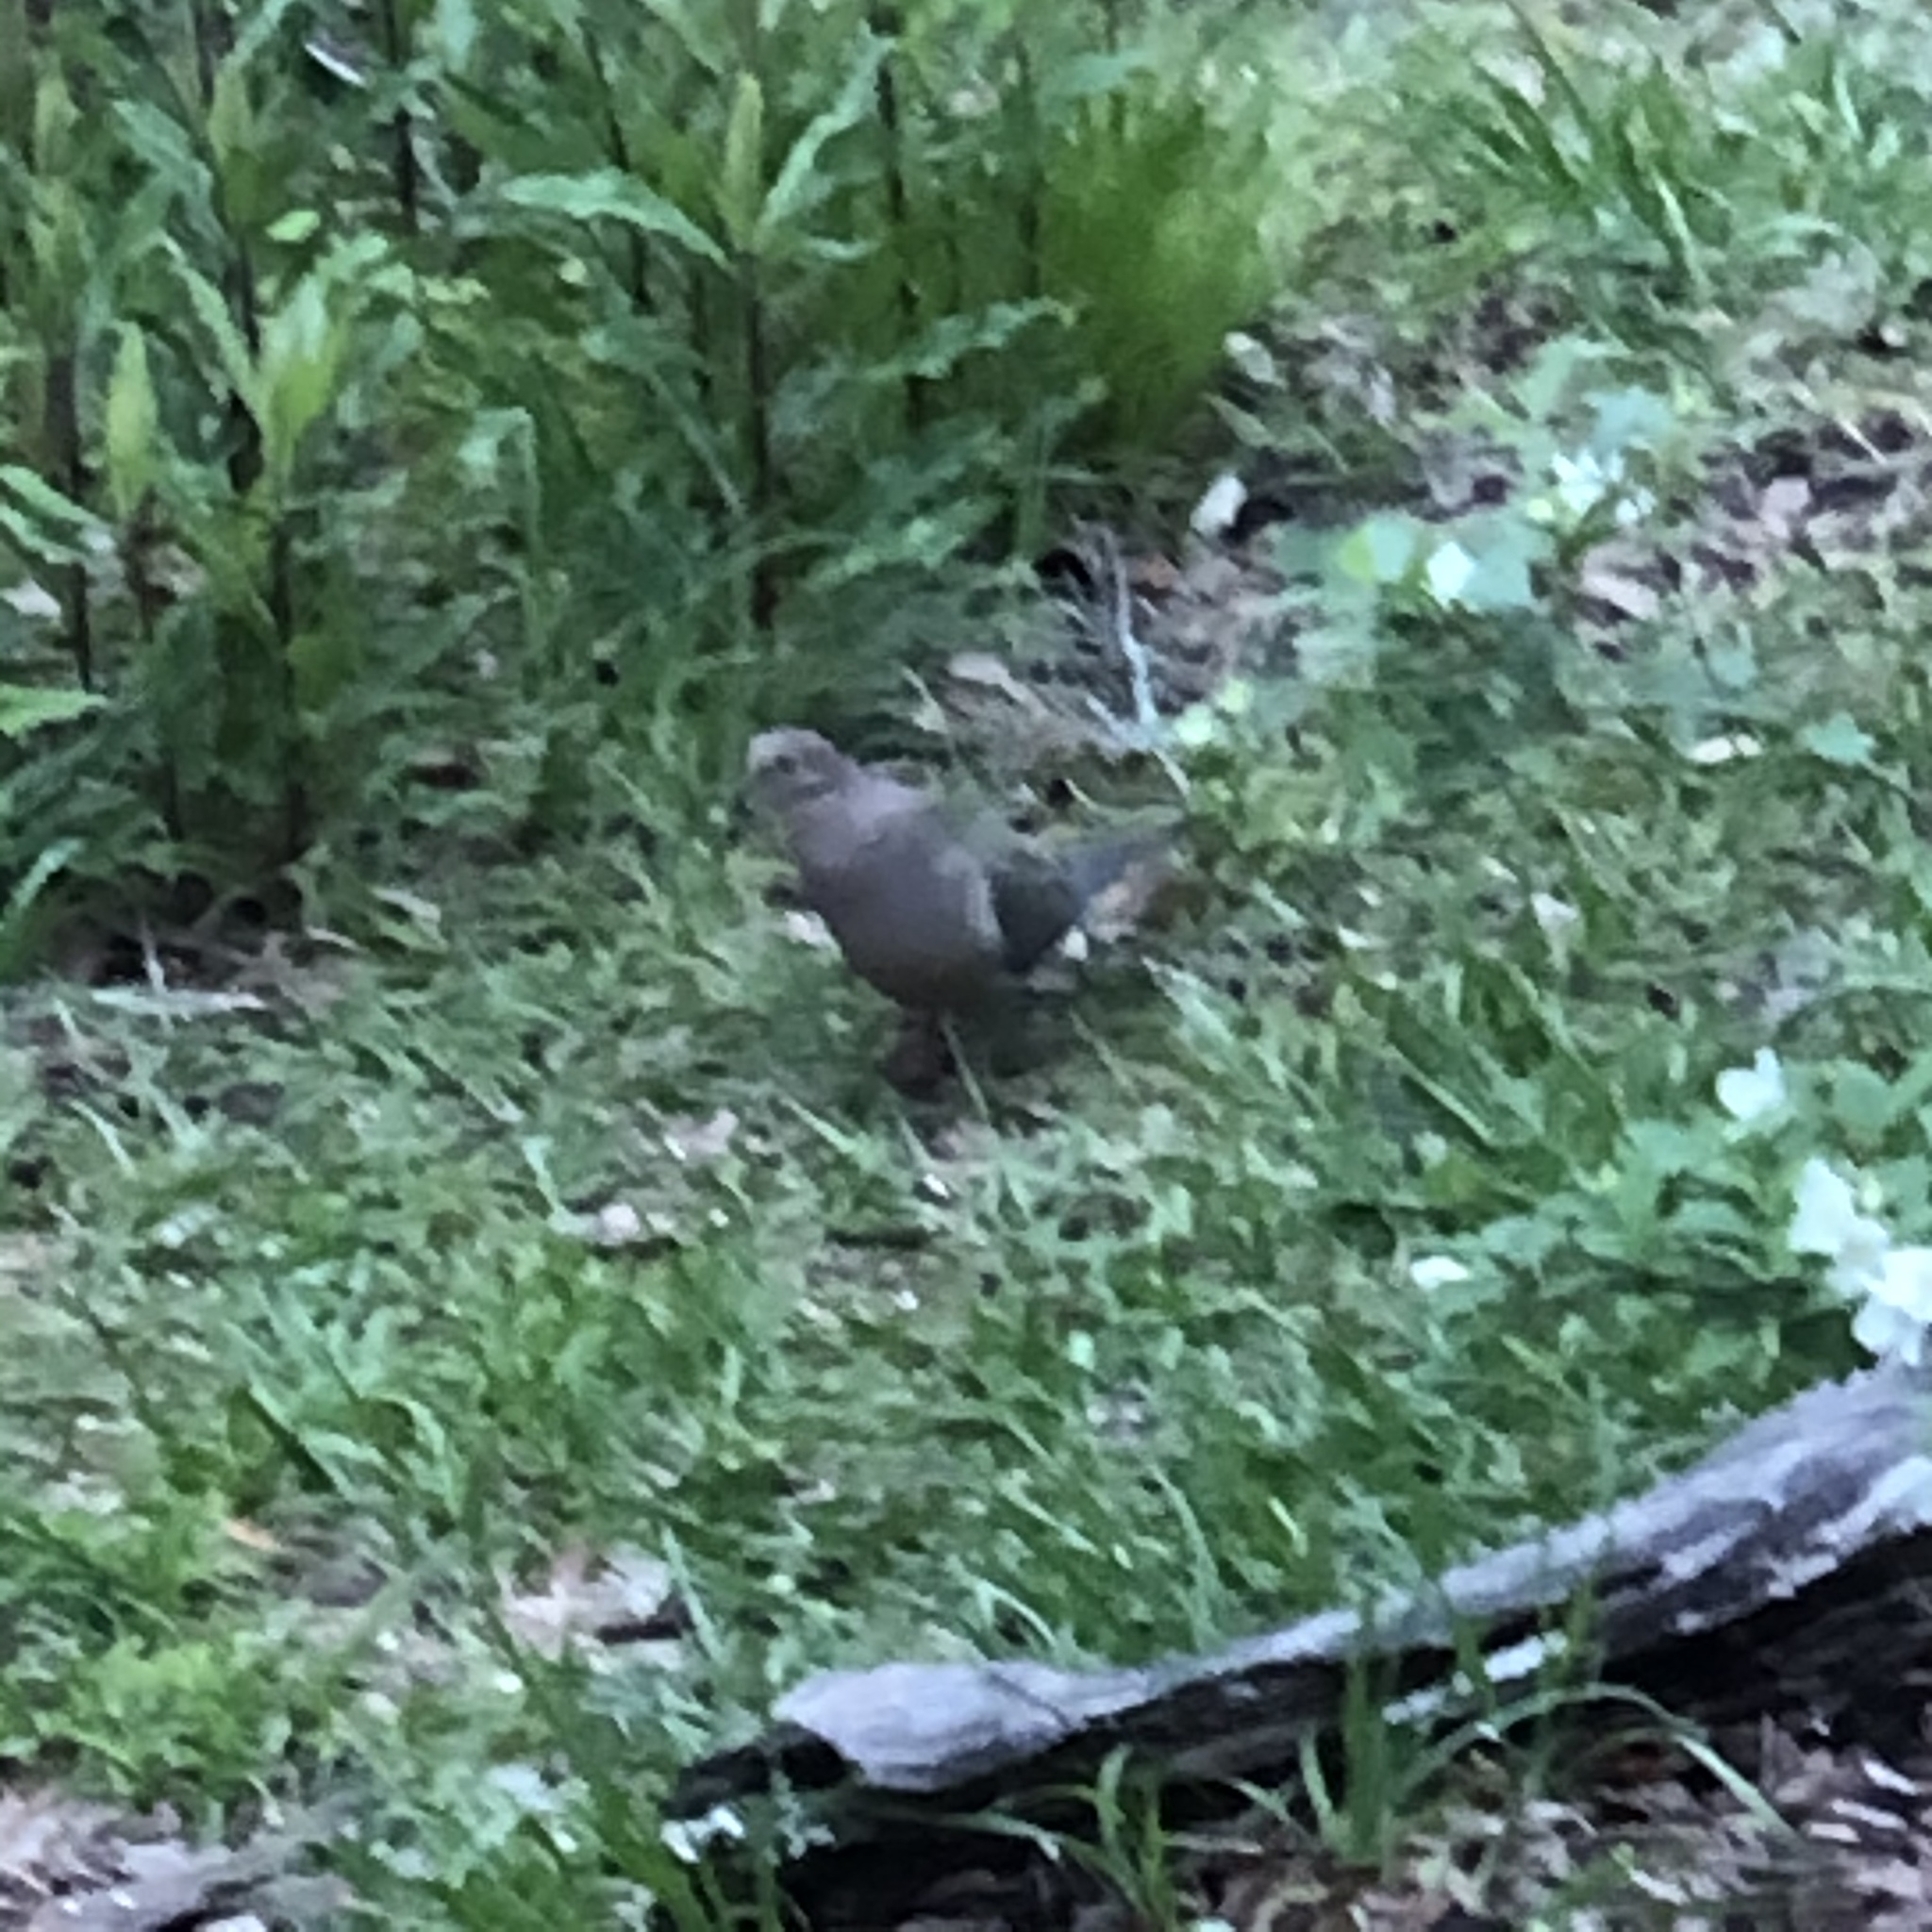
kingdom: Animalia
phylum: Chordata
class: Aves
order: Columbiformes
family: Columbidae
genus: Zenaida
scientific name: Zenaida macroura
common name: Mourning dove
